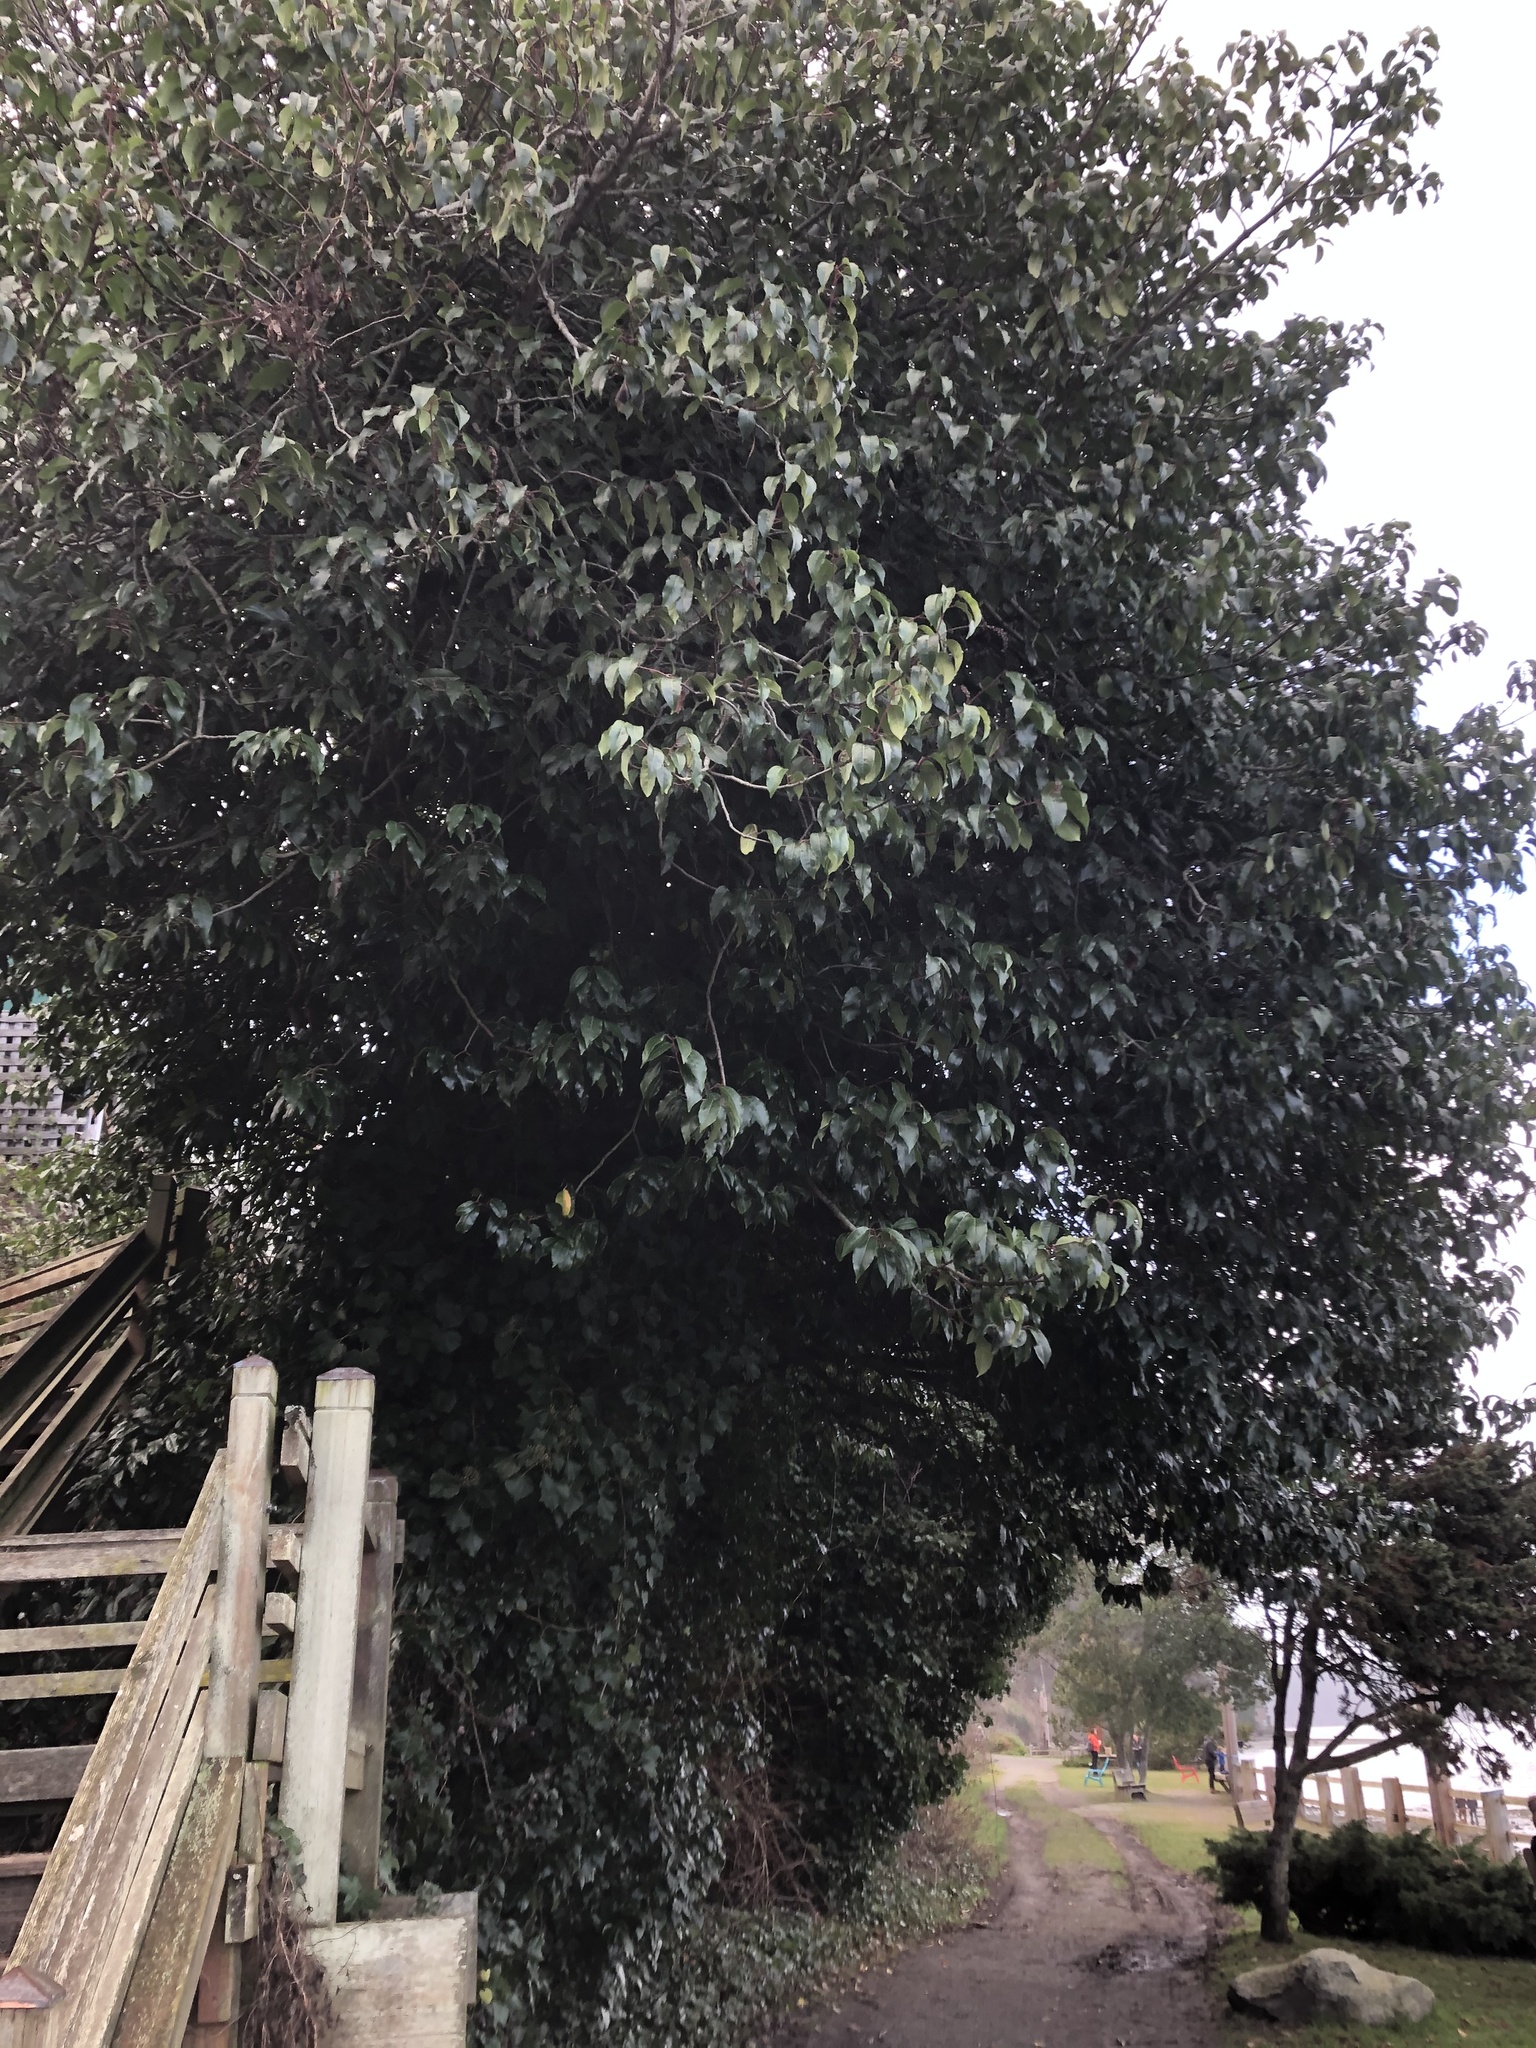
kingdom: Plantae
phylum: Tracheophyta
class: Magnoliopsida
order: Rosales
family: Rosaceae
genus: Prunus
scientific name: Prunus lusitanica
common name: Portugal laurel
